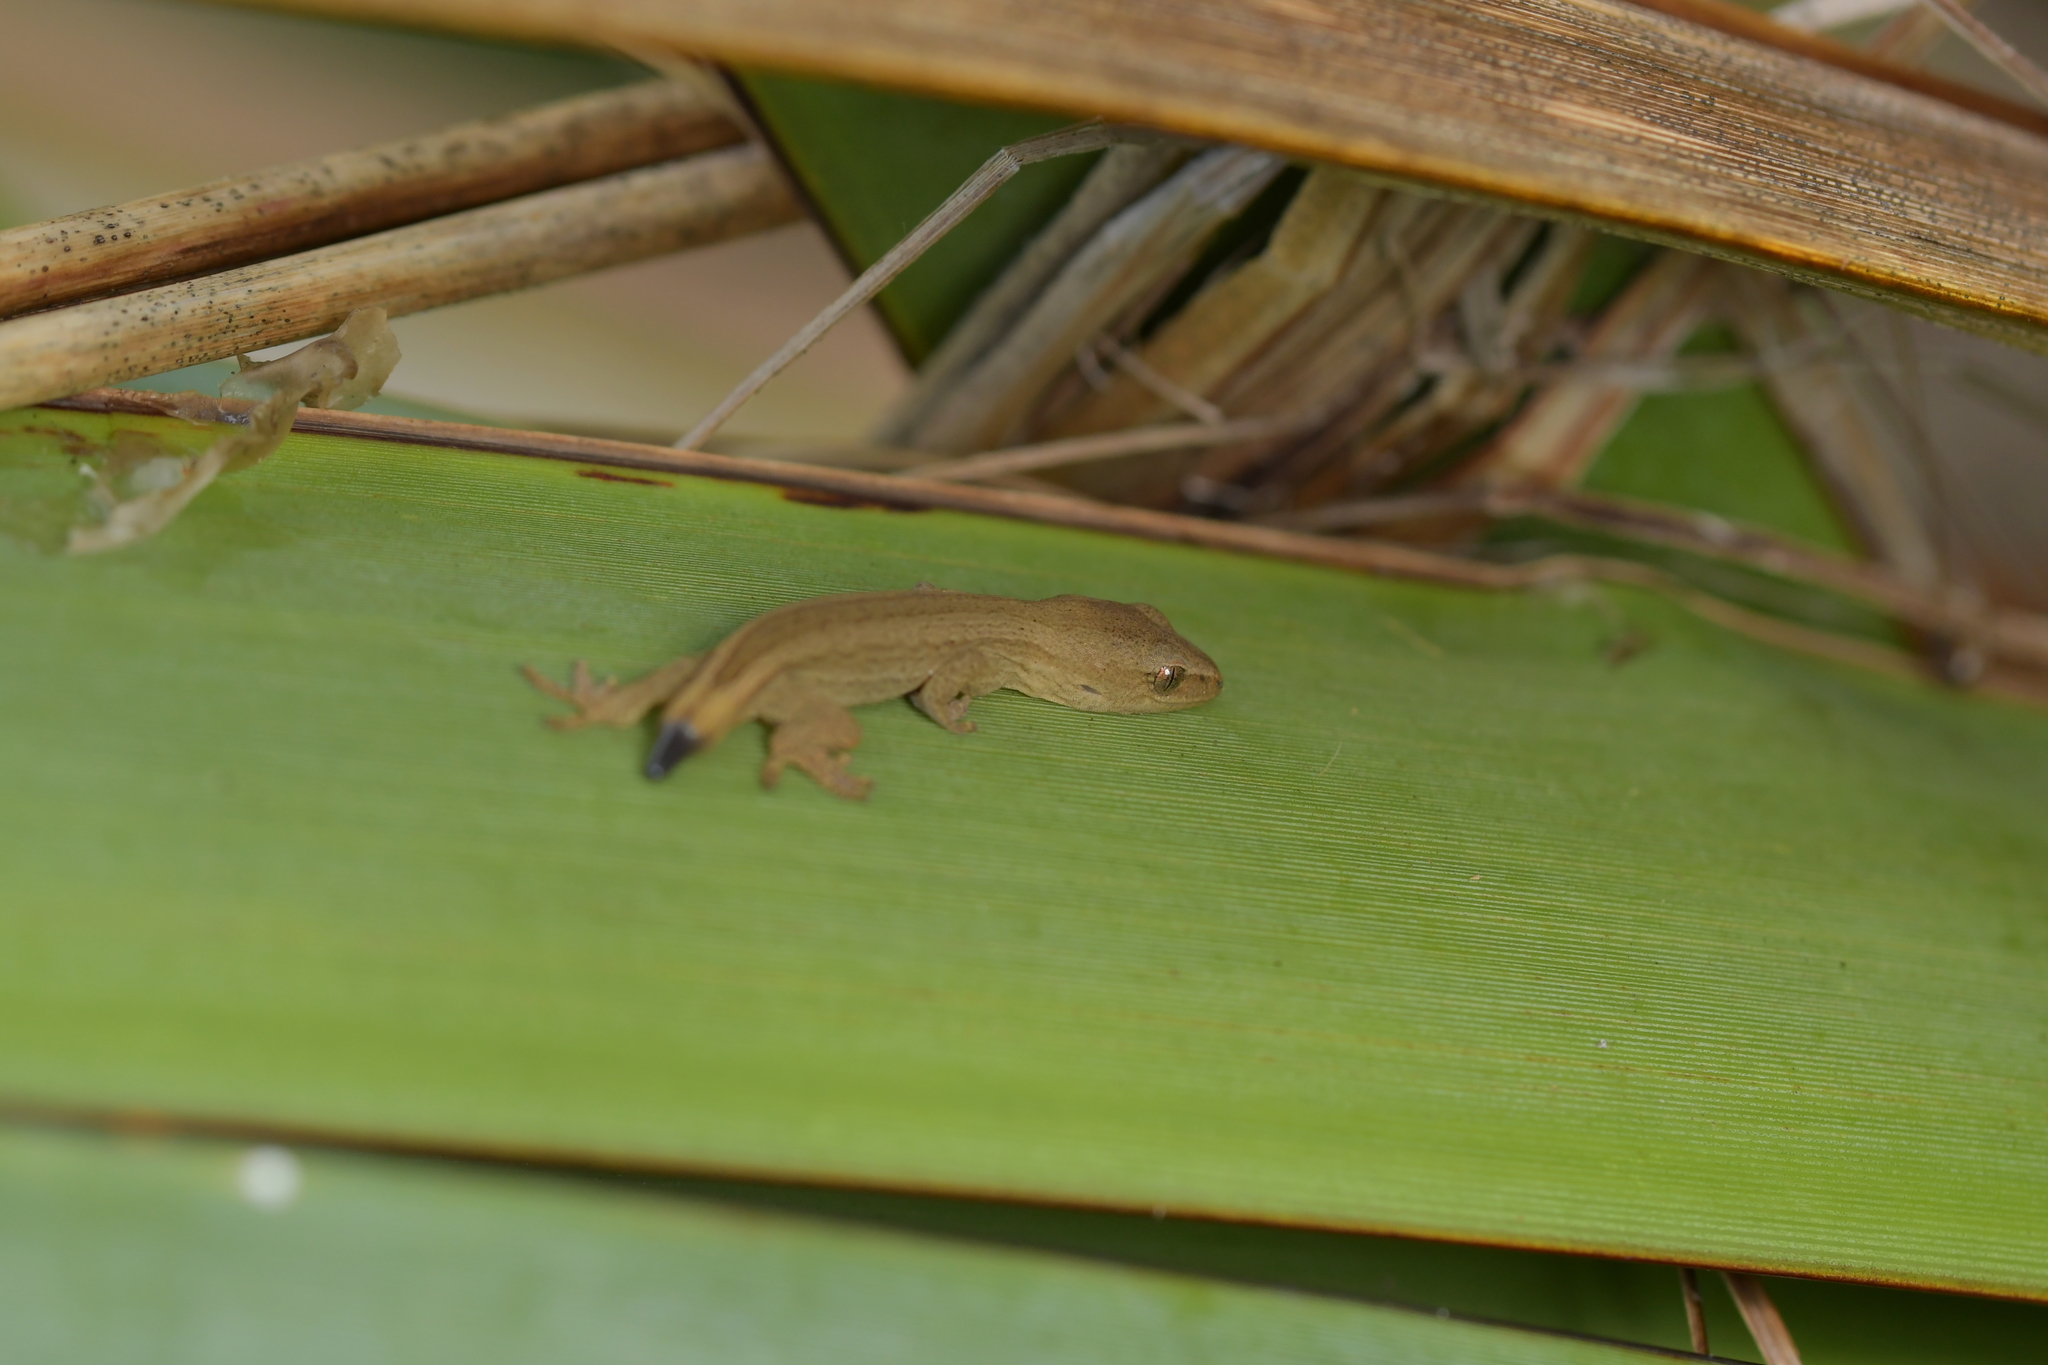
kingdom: Animalia
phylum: Chordata
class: Squamata
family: Diplodactylidae
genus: Woodworthia
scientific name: Woodworthia chrysosiretica
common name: Gold-striped gecko
